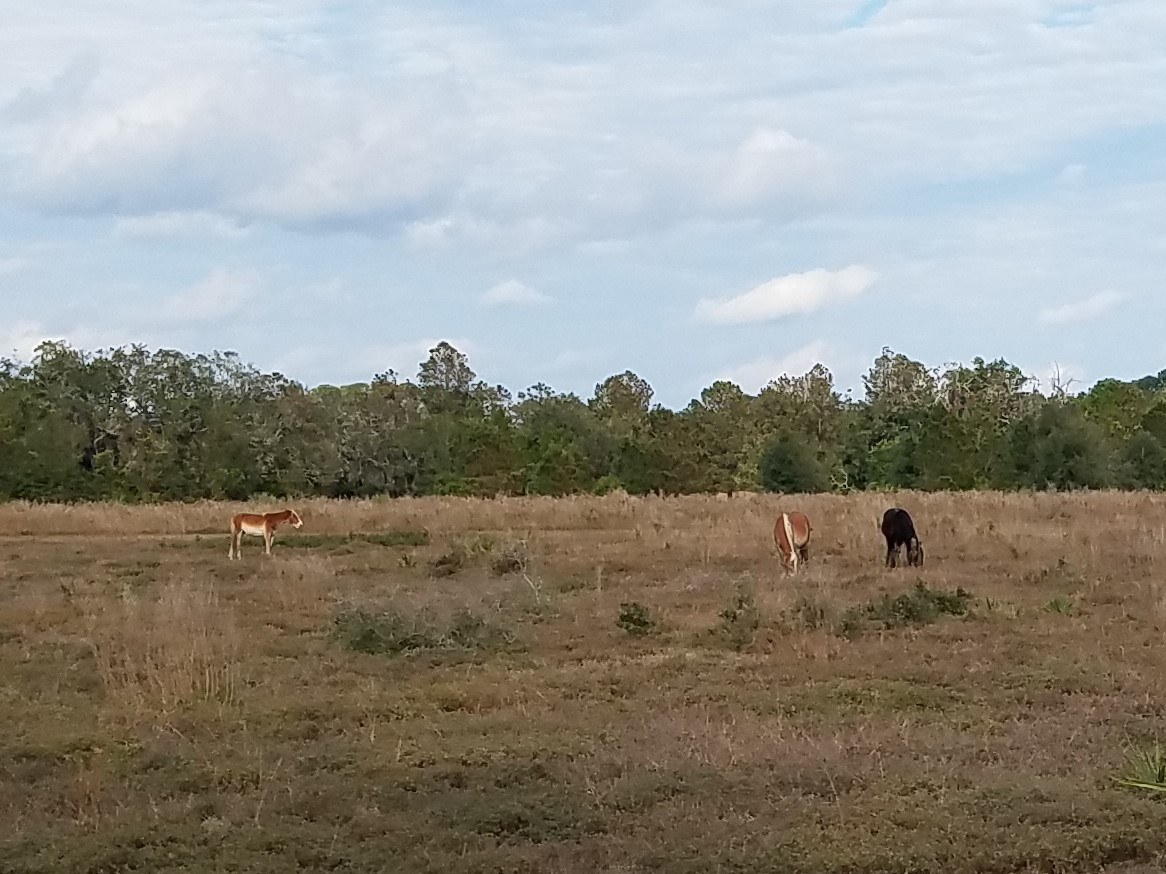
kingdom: Animalia
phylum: Chordata
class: Mammalia
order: Perissodactyla
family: Equidae
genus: Equus
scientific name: Equus caballus
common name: Horse
